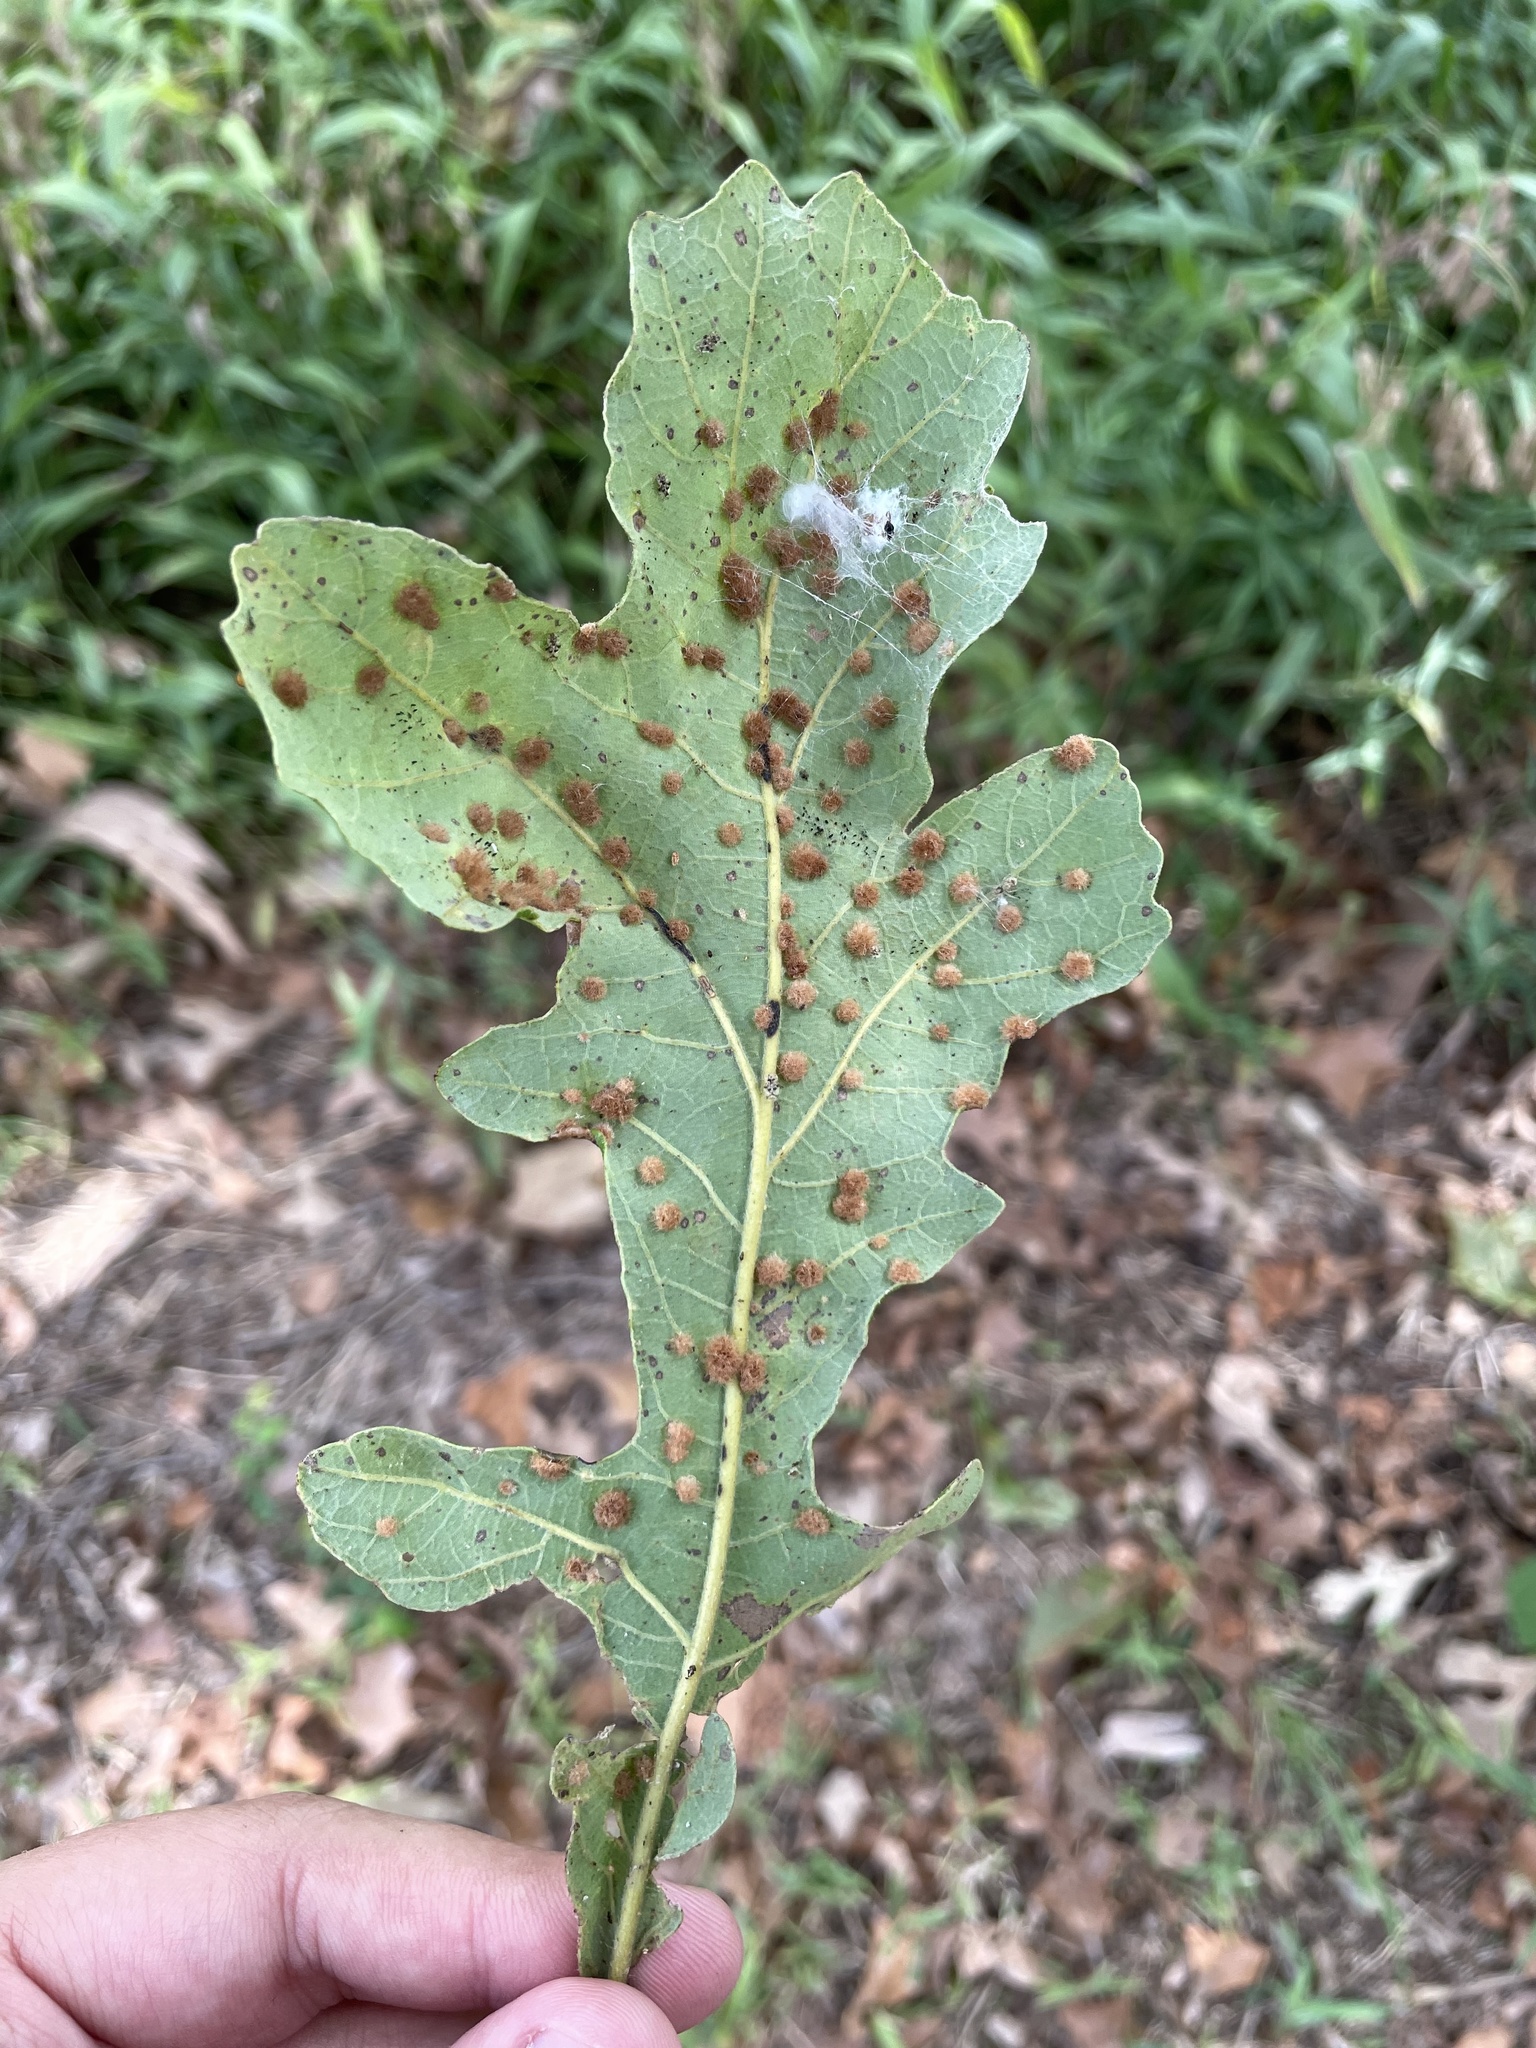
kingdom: Animalia
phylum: Arthropoda
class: Insecta
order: Hymenoptera
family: Cynipidae
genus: Neuroterus
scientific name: Neuroterus quercusverrucarum
